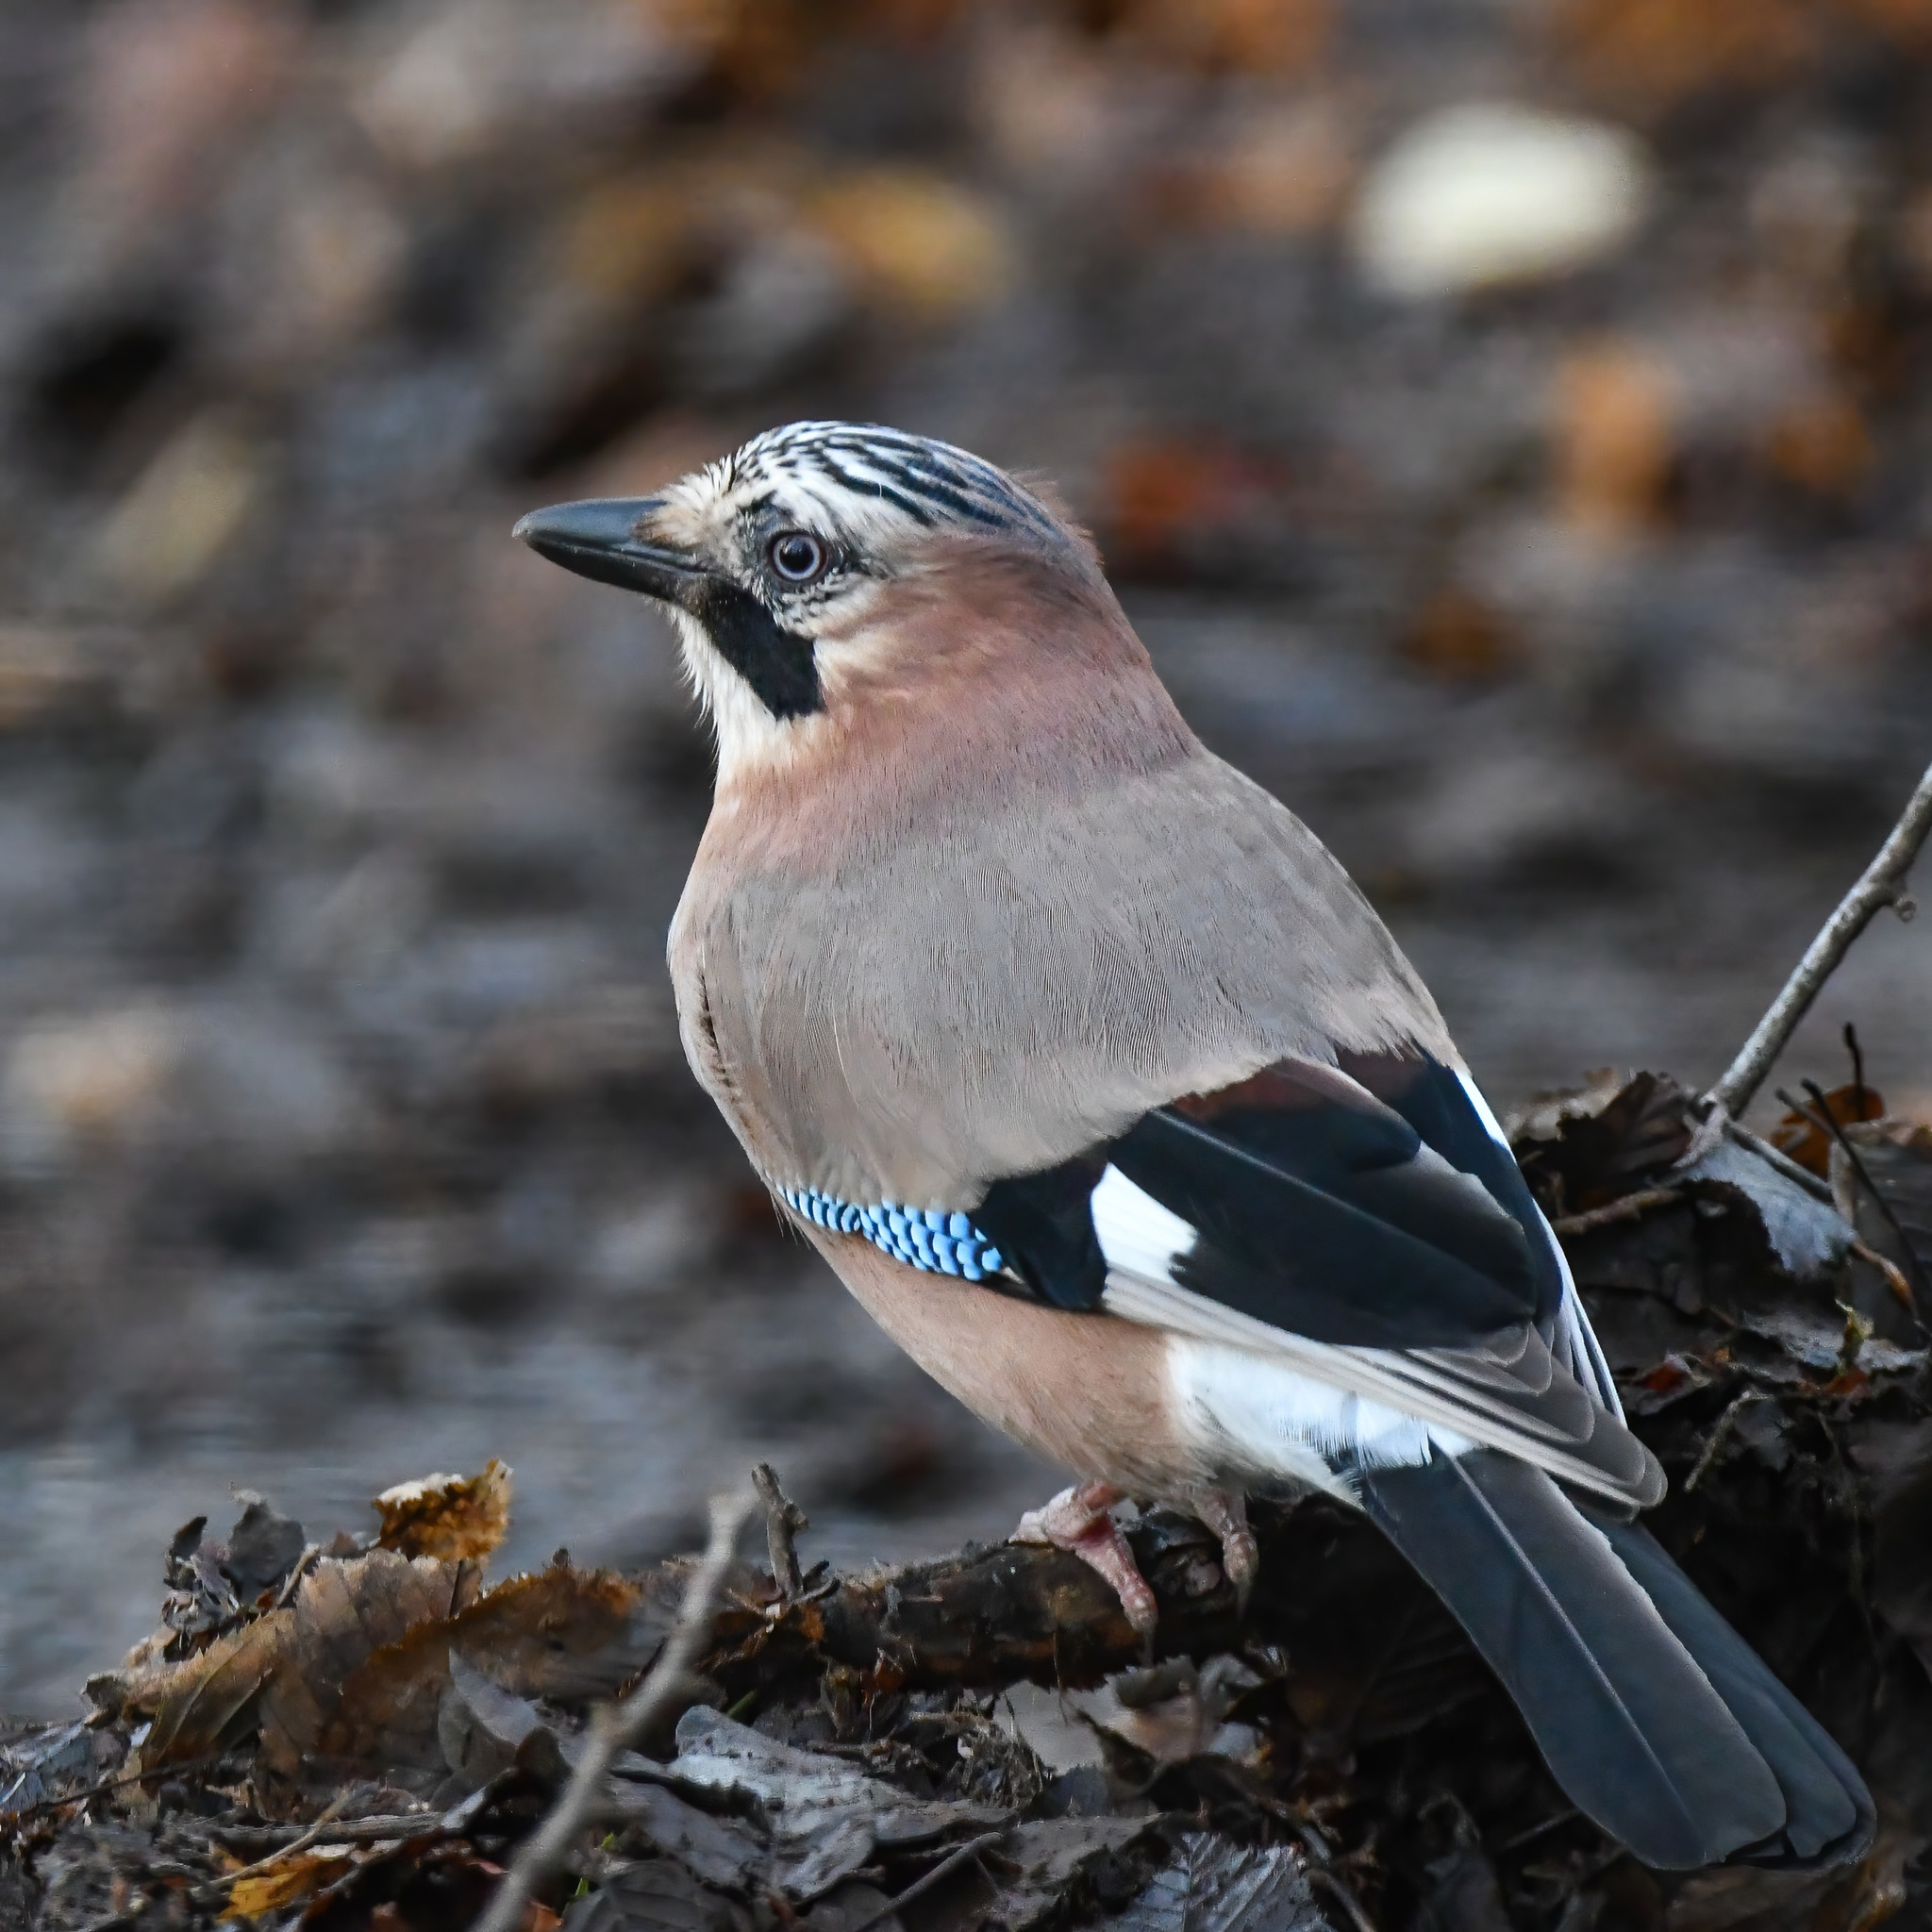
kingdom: Animalia
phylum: Chordata
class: Aves
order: Passeriformes
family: Corvidae
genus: Garrulus
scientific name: Garrulus glandarius
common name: Eurasian jay
